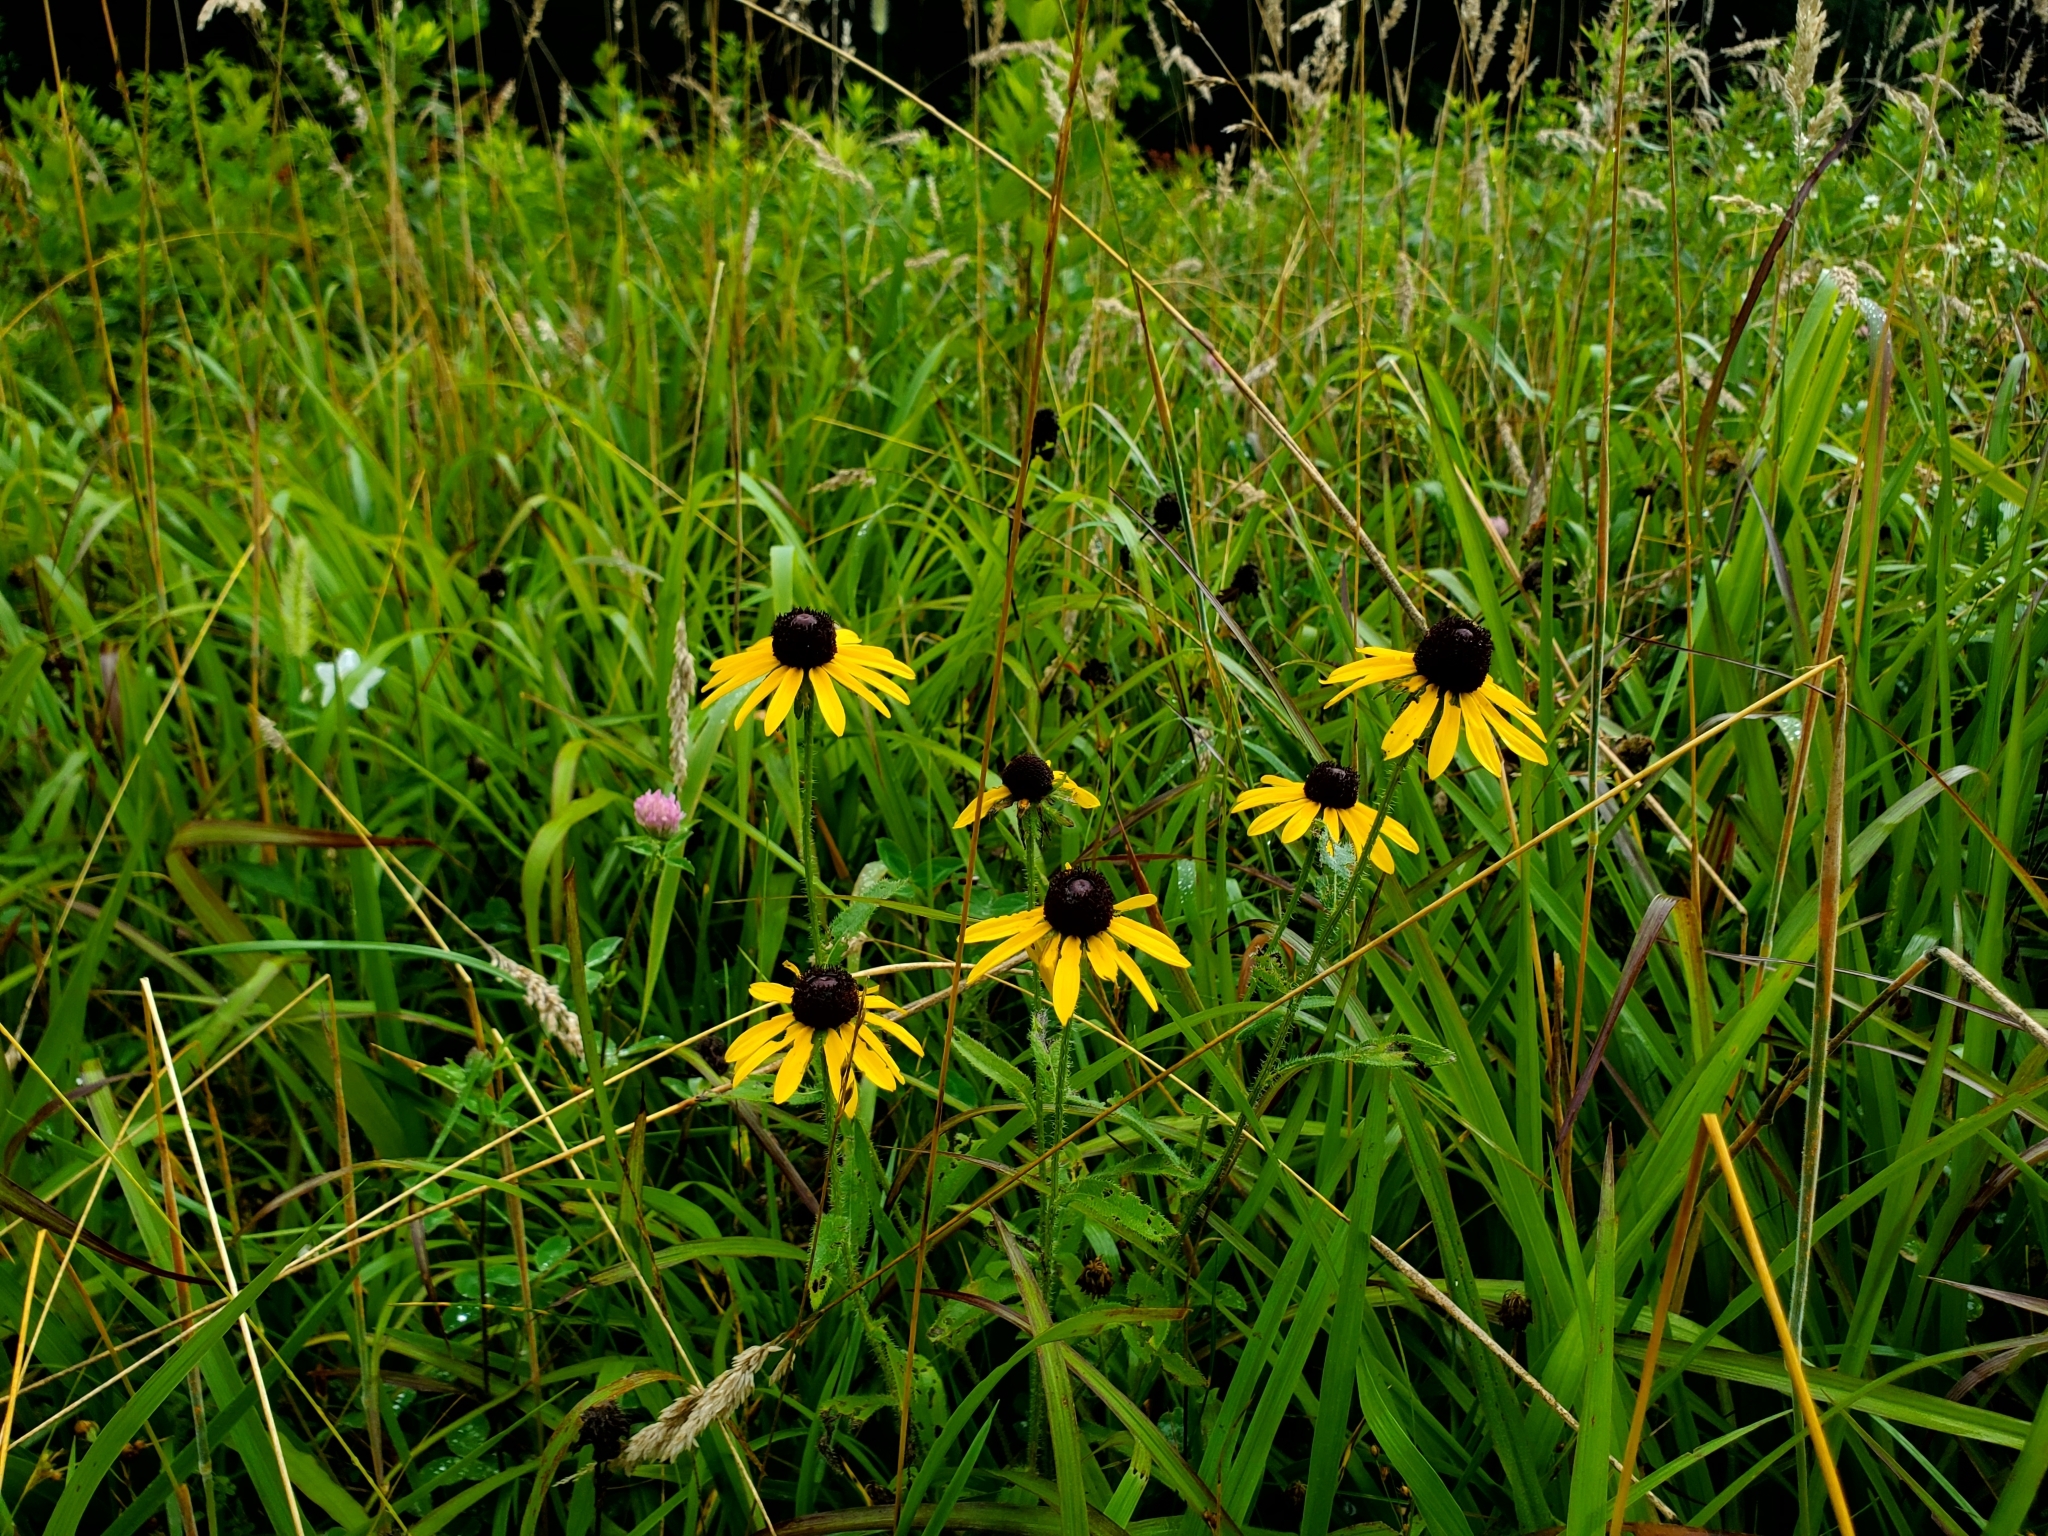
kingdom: Plantae
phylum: Tracheophyta
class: Magnoliopsida
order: Asterales
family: Asteraceae
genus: Rudbeckia
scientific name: Rudbeckia hirta
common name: Black-eyed-susan
